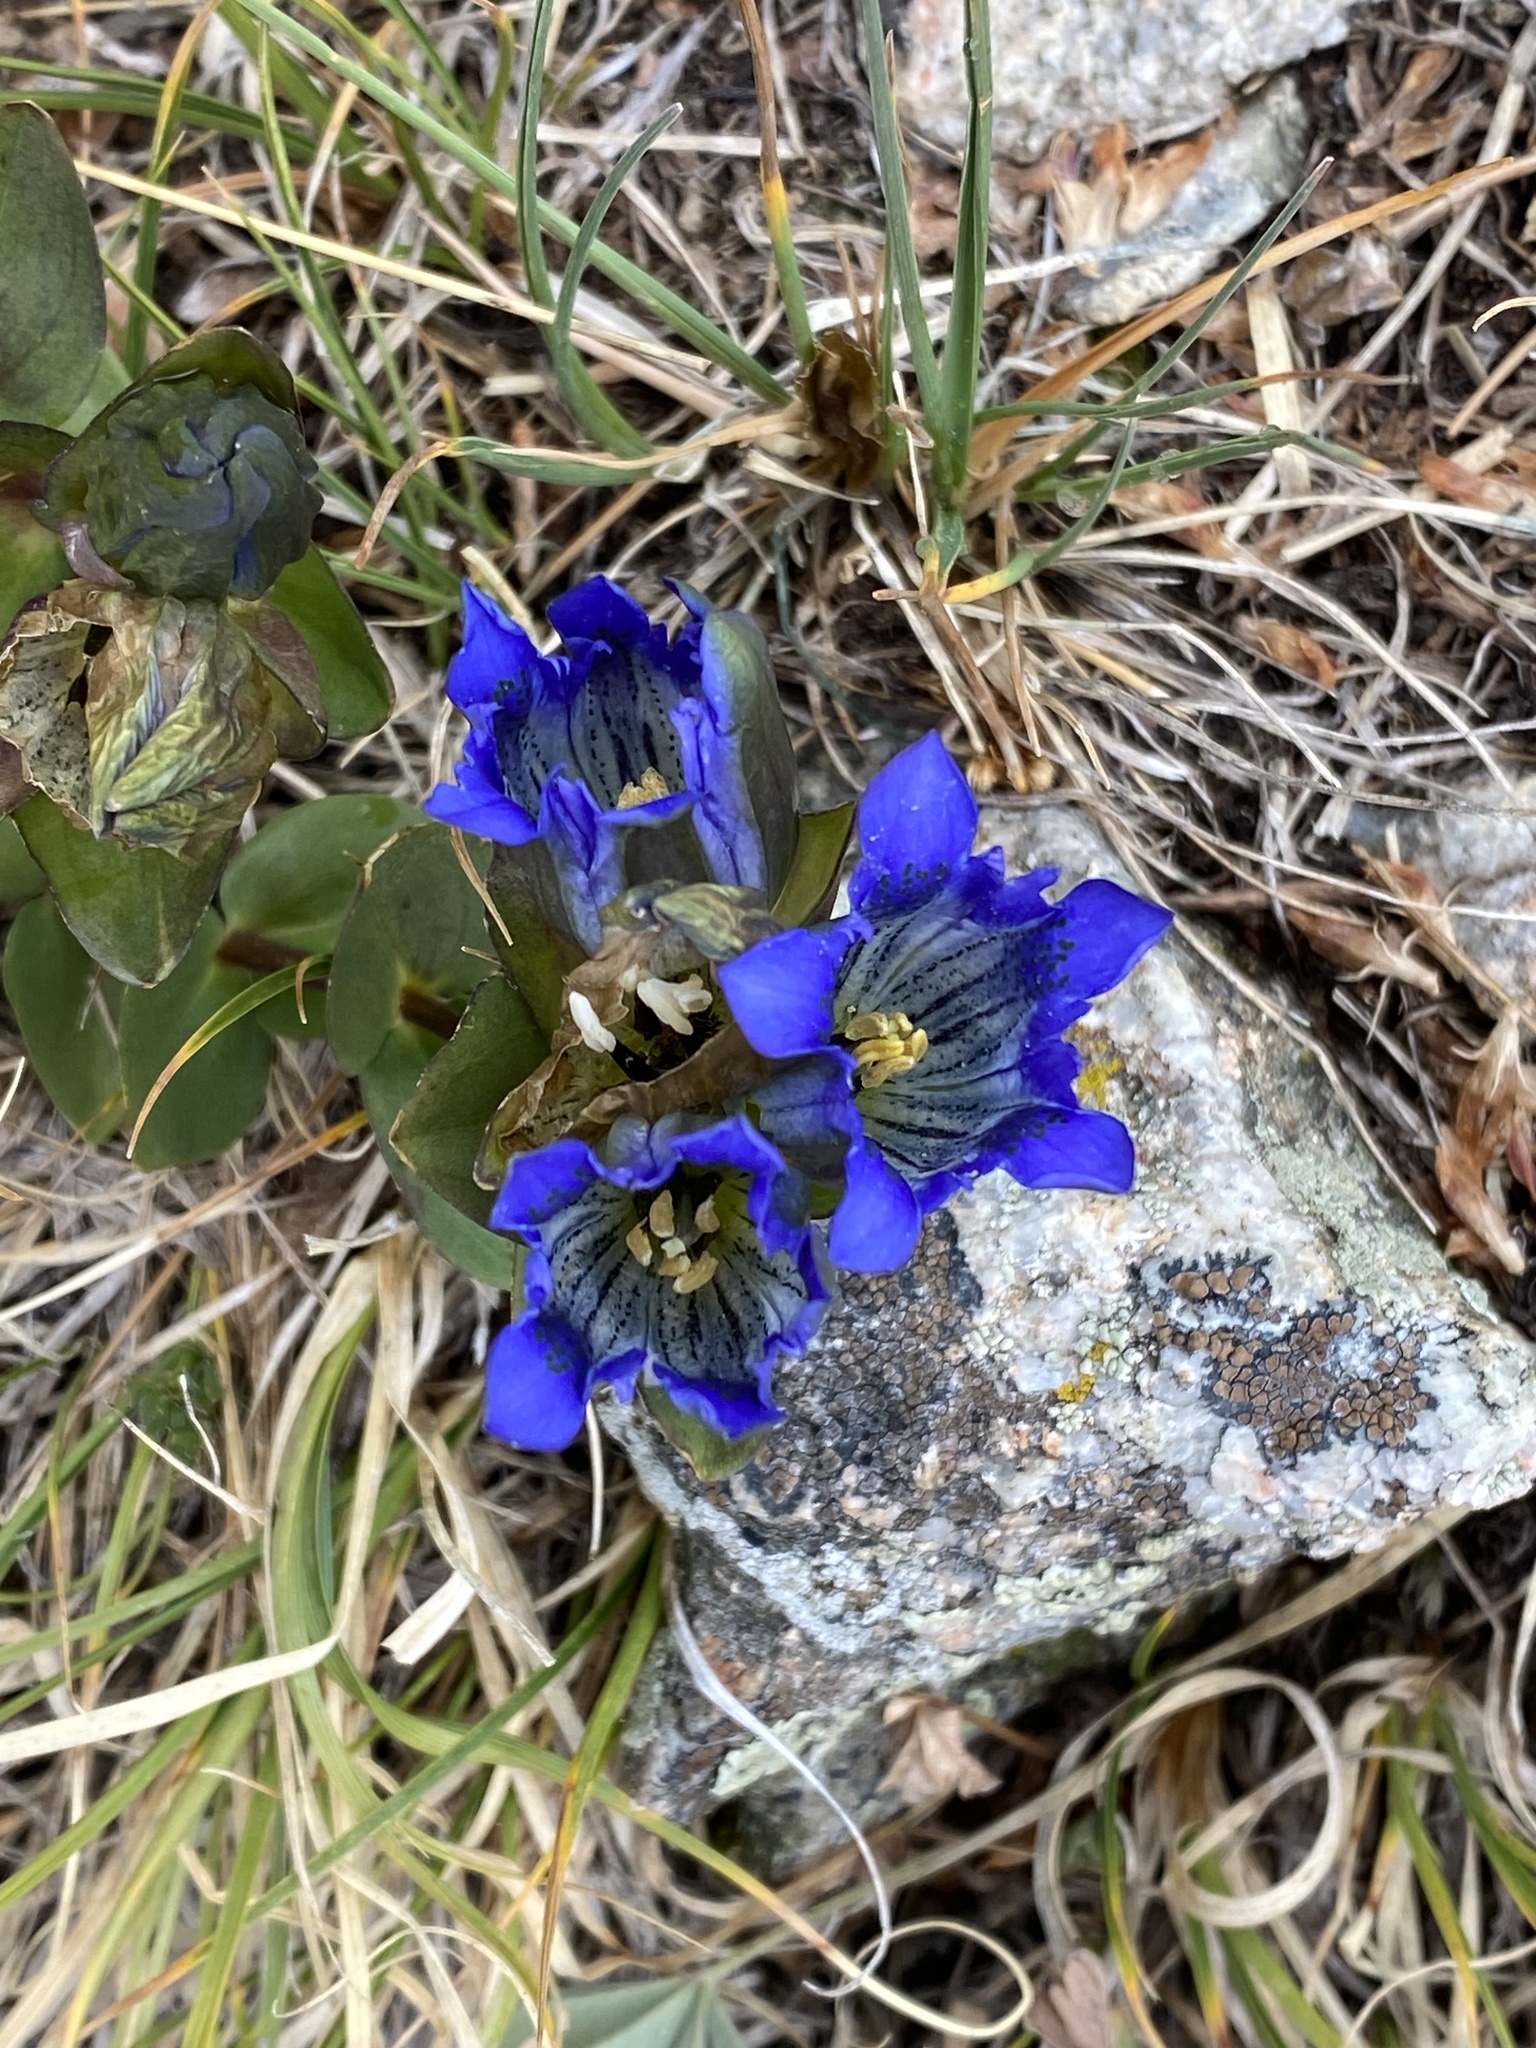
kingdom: Plantae
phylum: Tracheophyta
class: Magnoliopsida
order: Gentianales
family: Gentianaceae
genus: Gentiana
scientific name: Gentiana parryi
